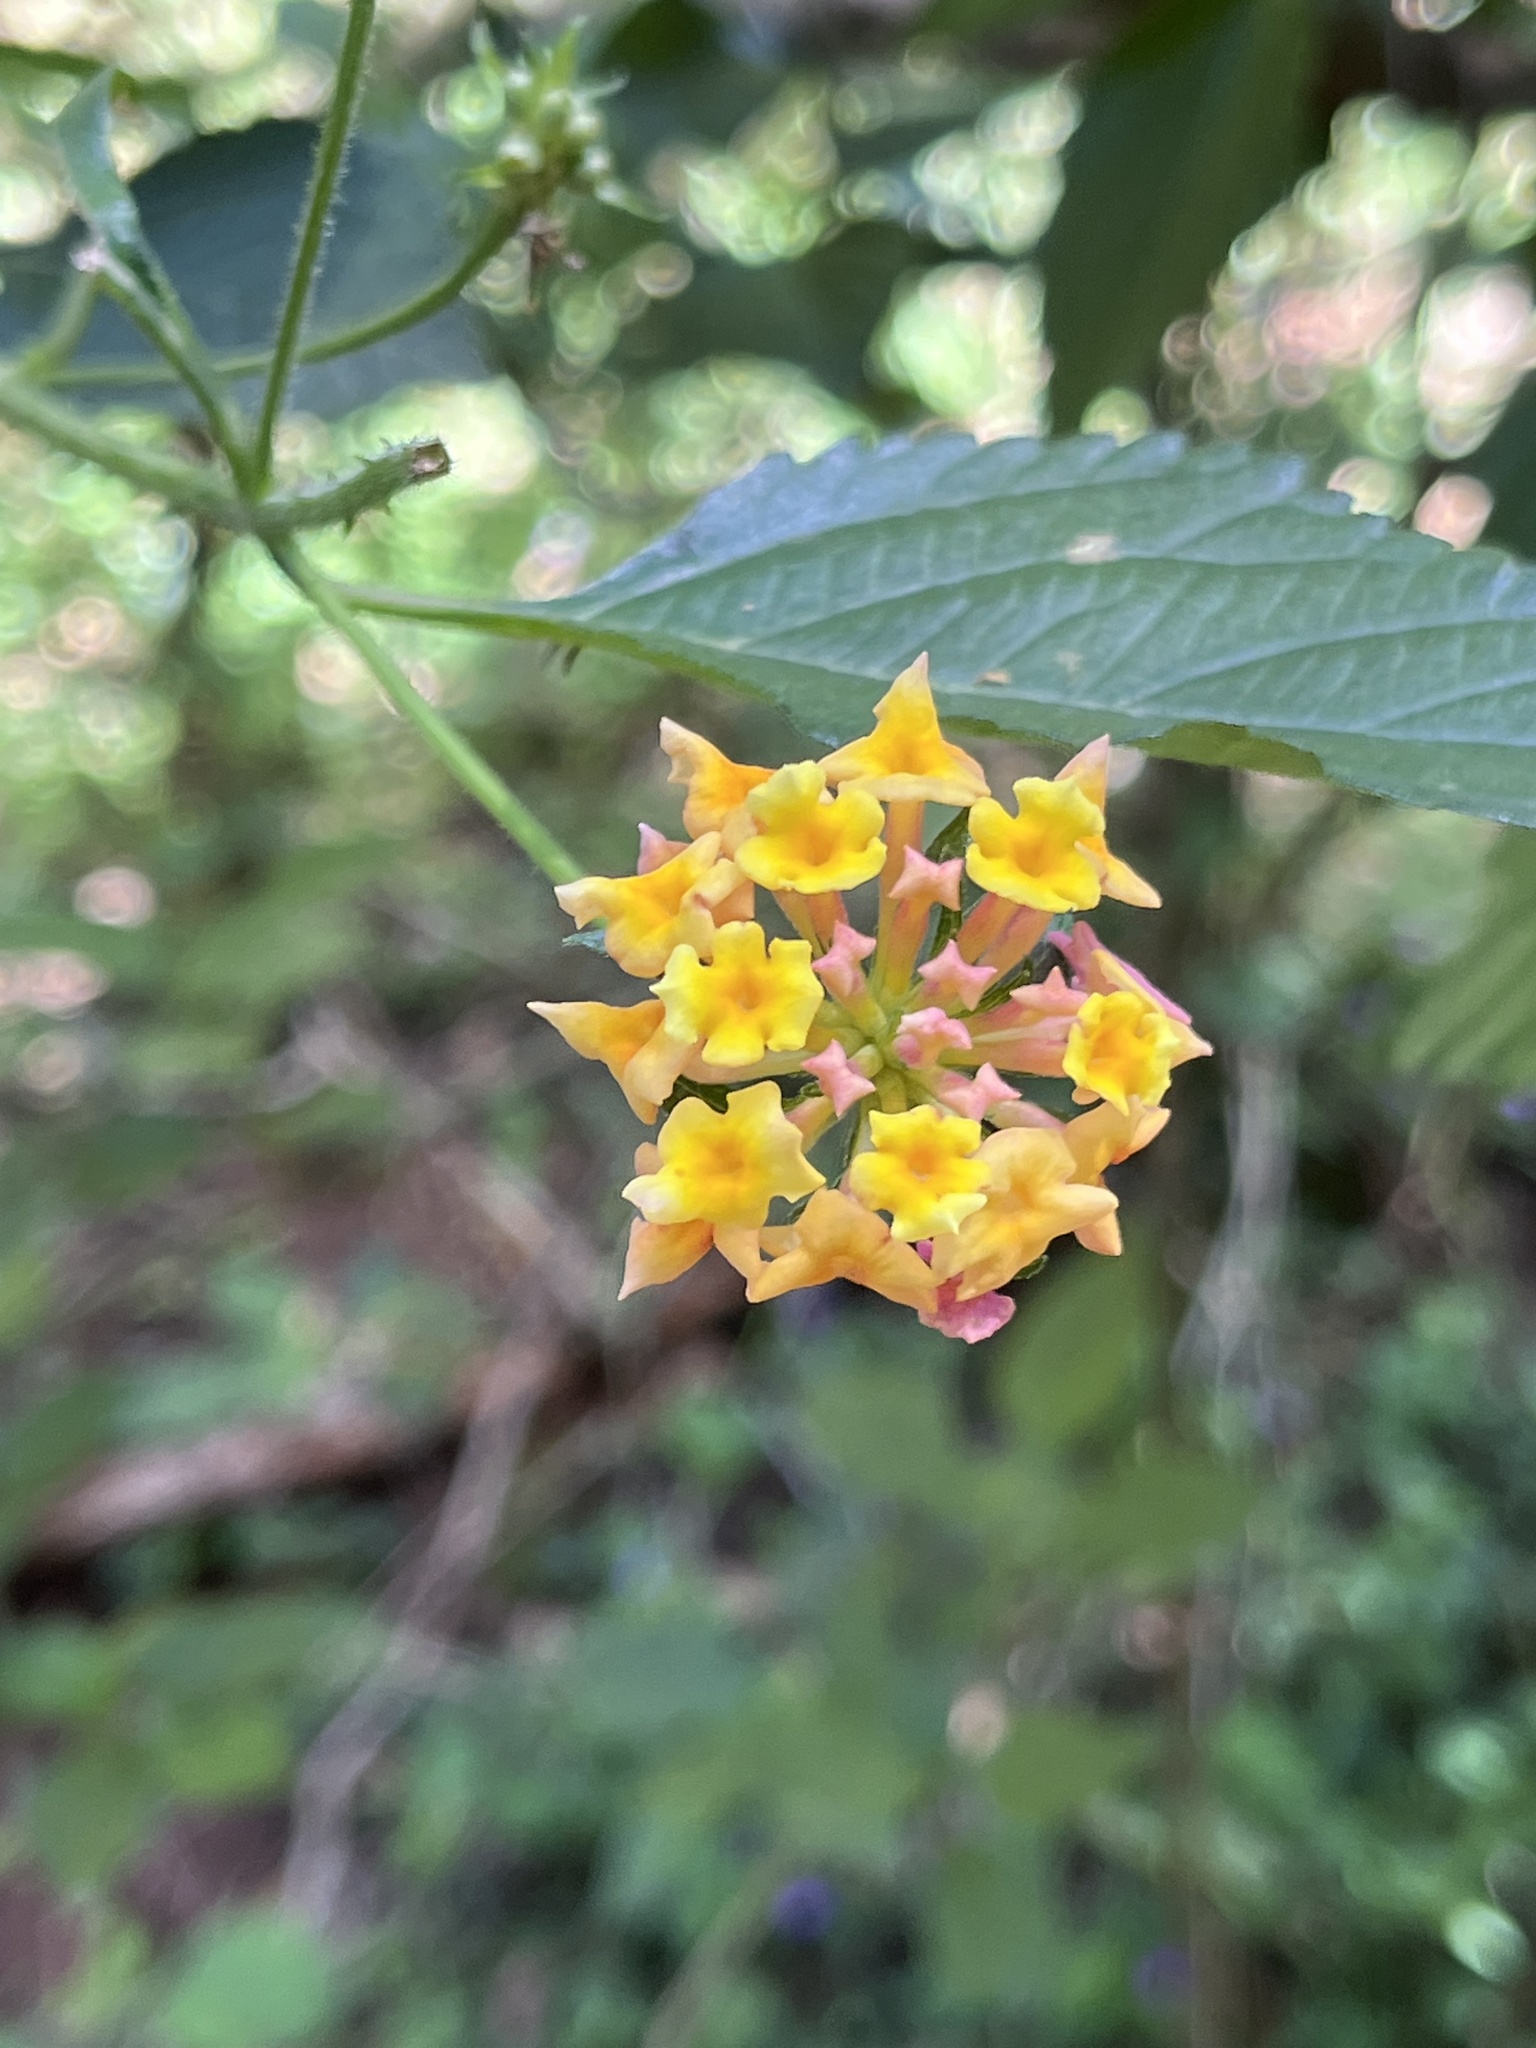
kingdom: Plantae
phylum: Tracheophyta
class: Magnoliopsida
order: Lamiales
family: Verbenaceae
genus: Lantana
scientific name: Lantana camara
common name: Lantana
